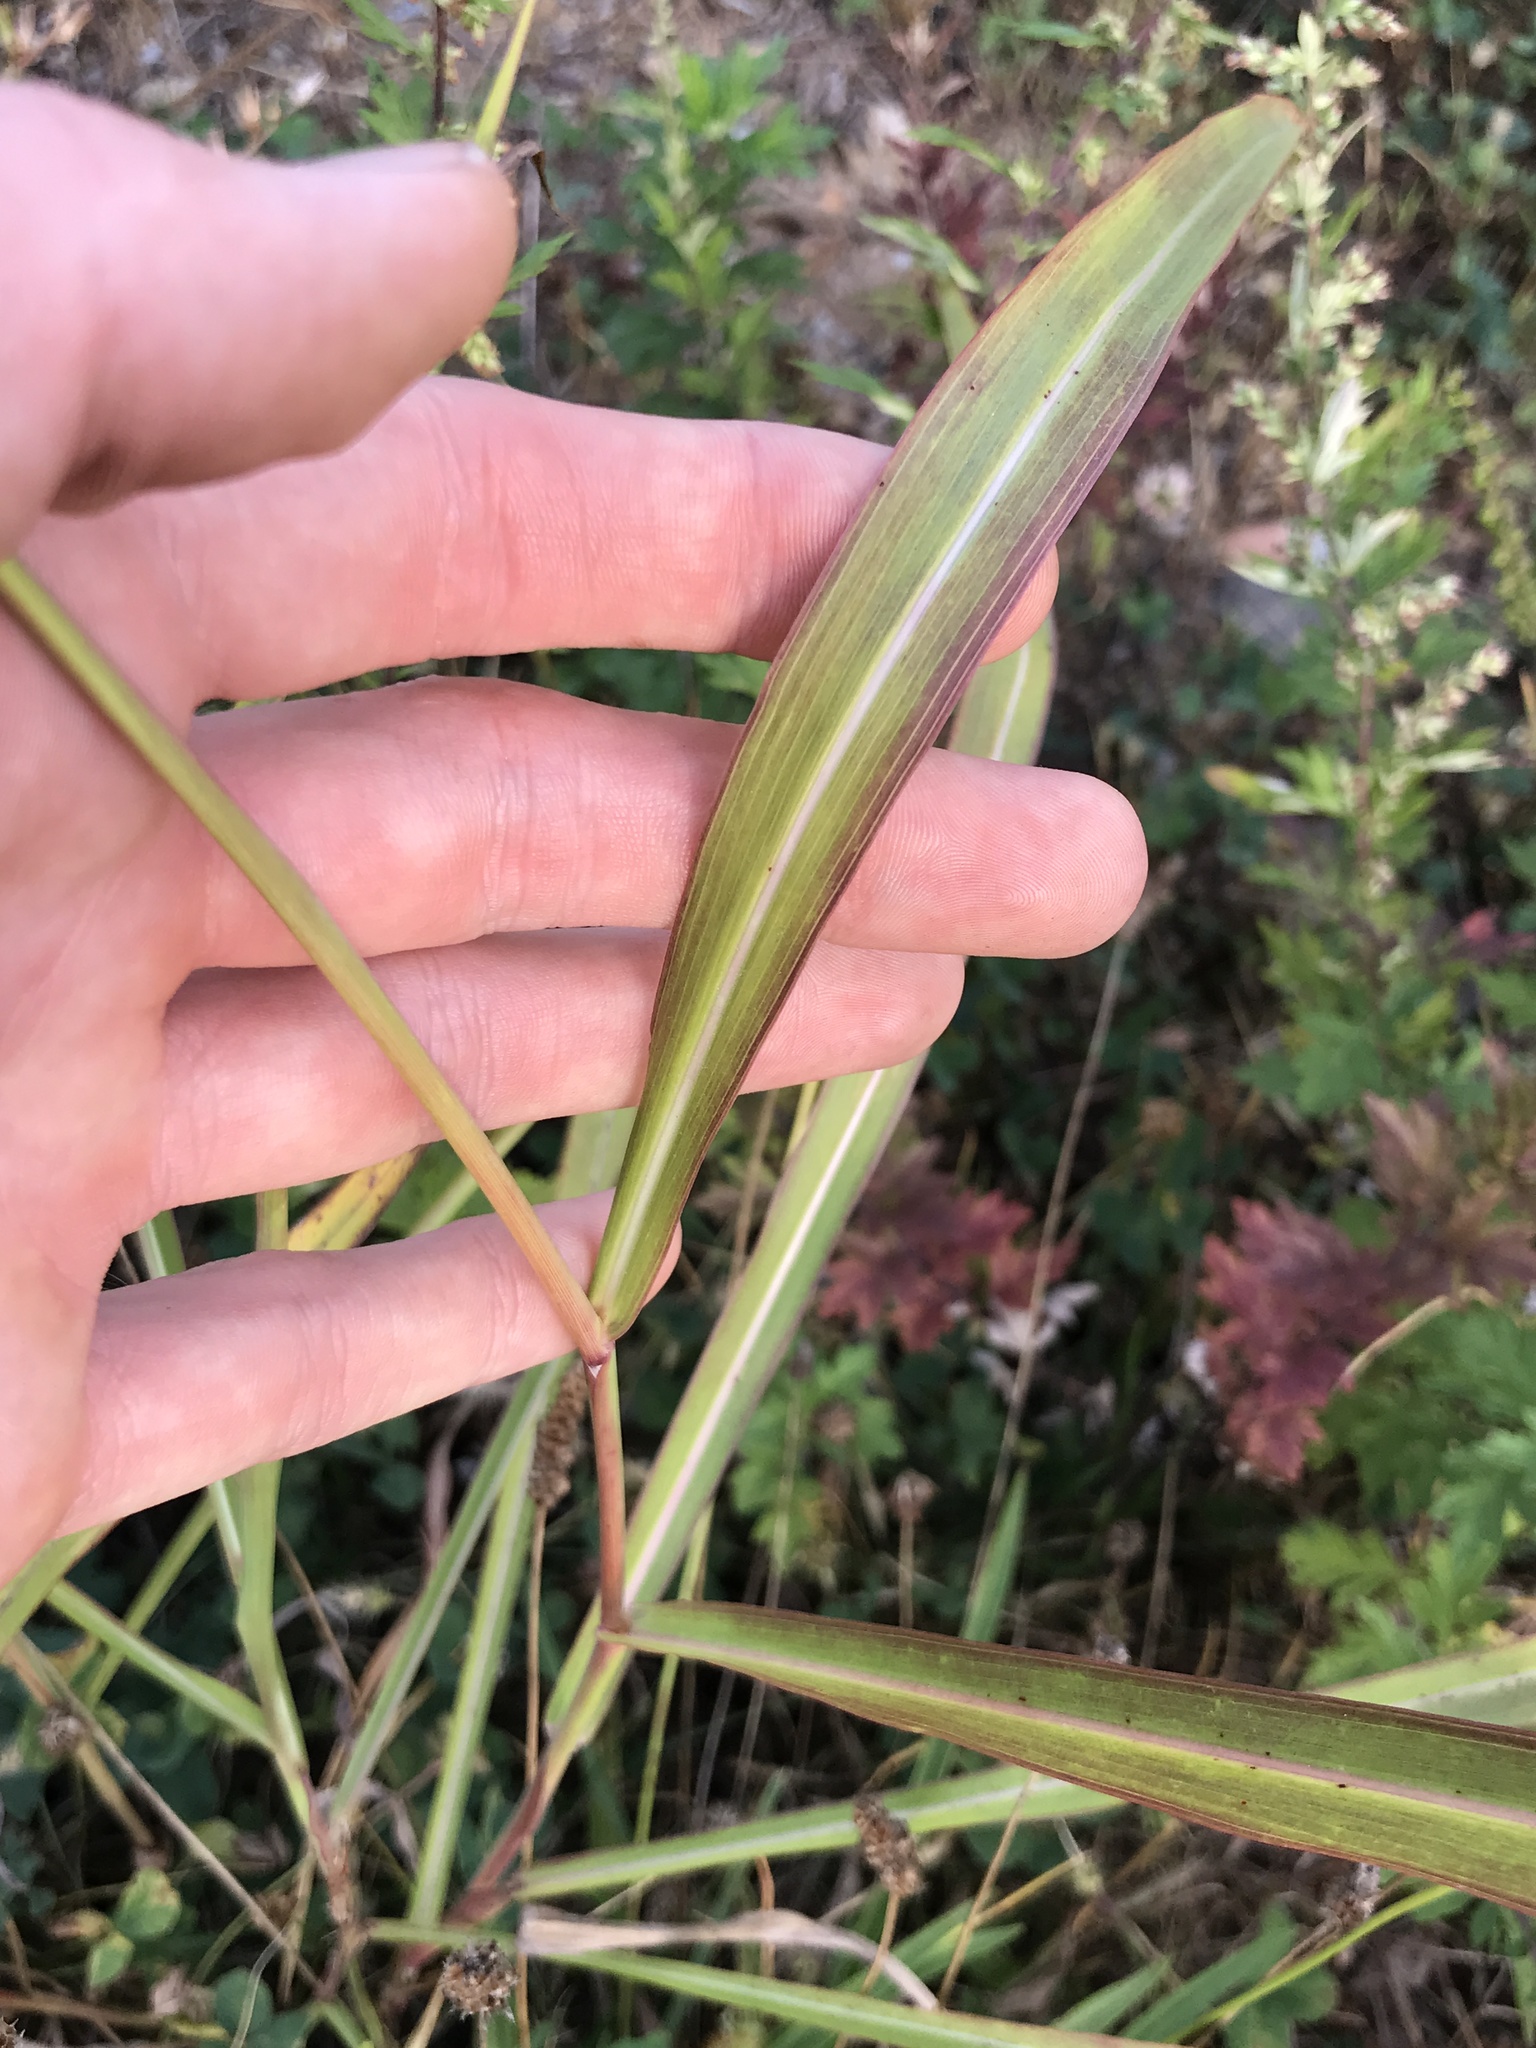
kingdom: Plantae
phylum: Tracheophyta
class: Liliopsida
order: Poales
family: Poaceae
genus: Sorghum
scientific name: Sorghum halepense
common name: Johnson-grass
